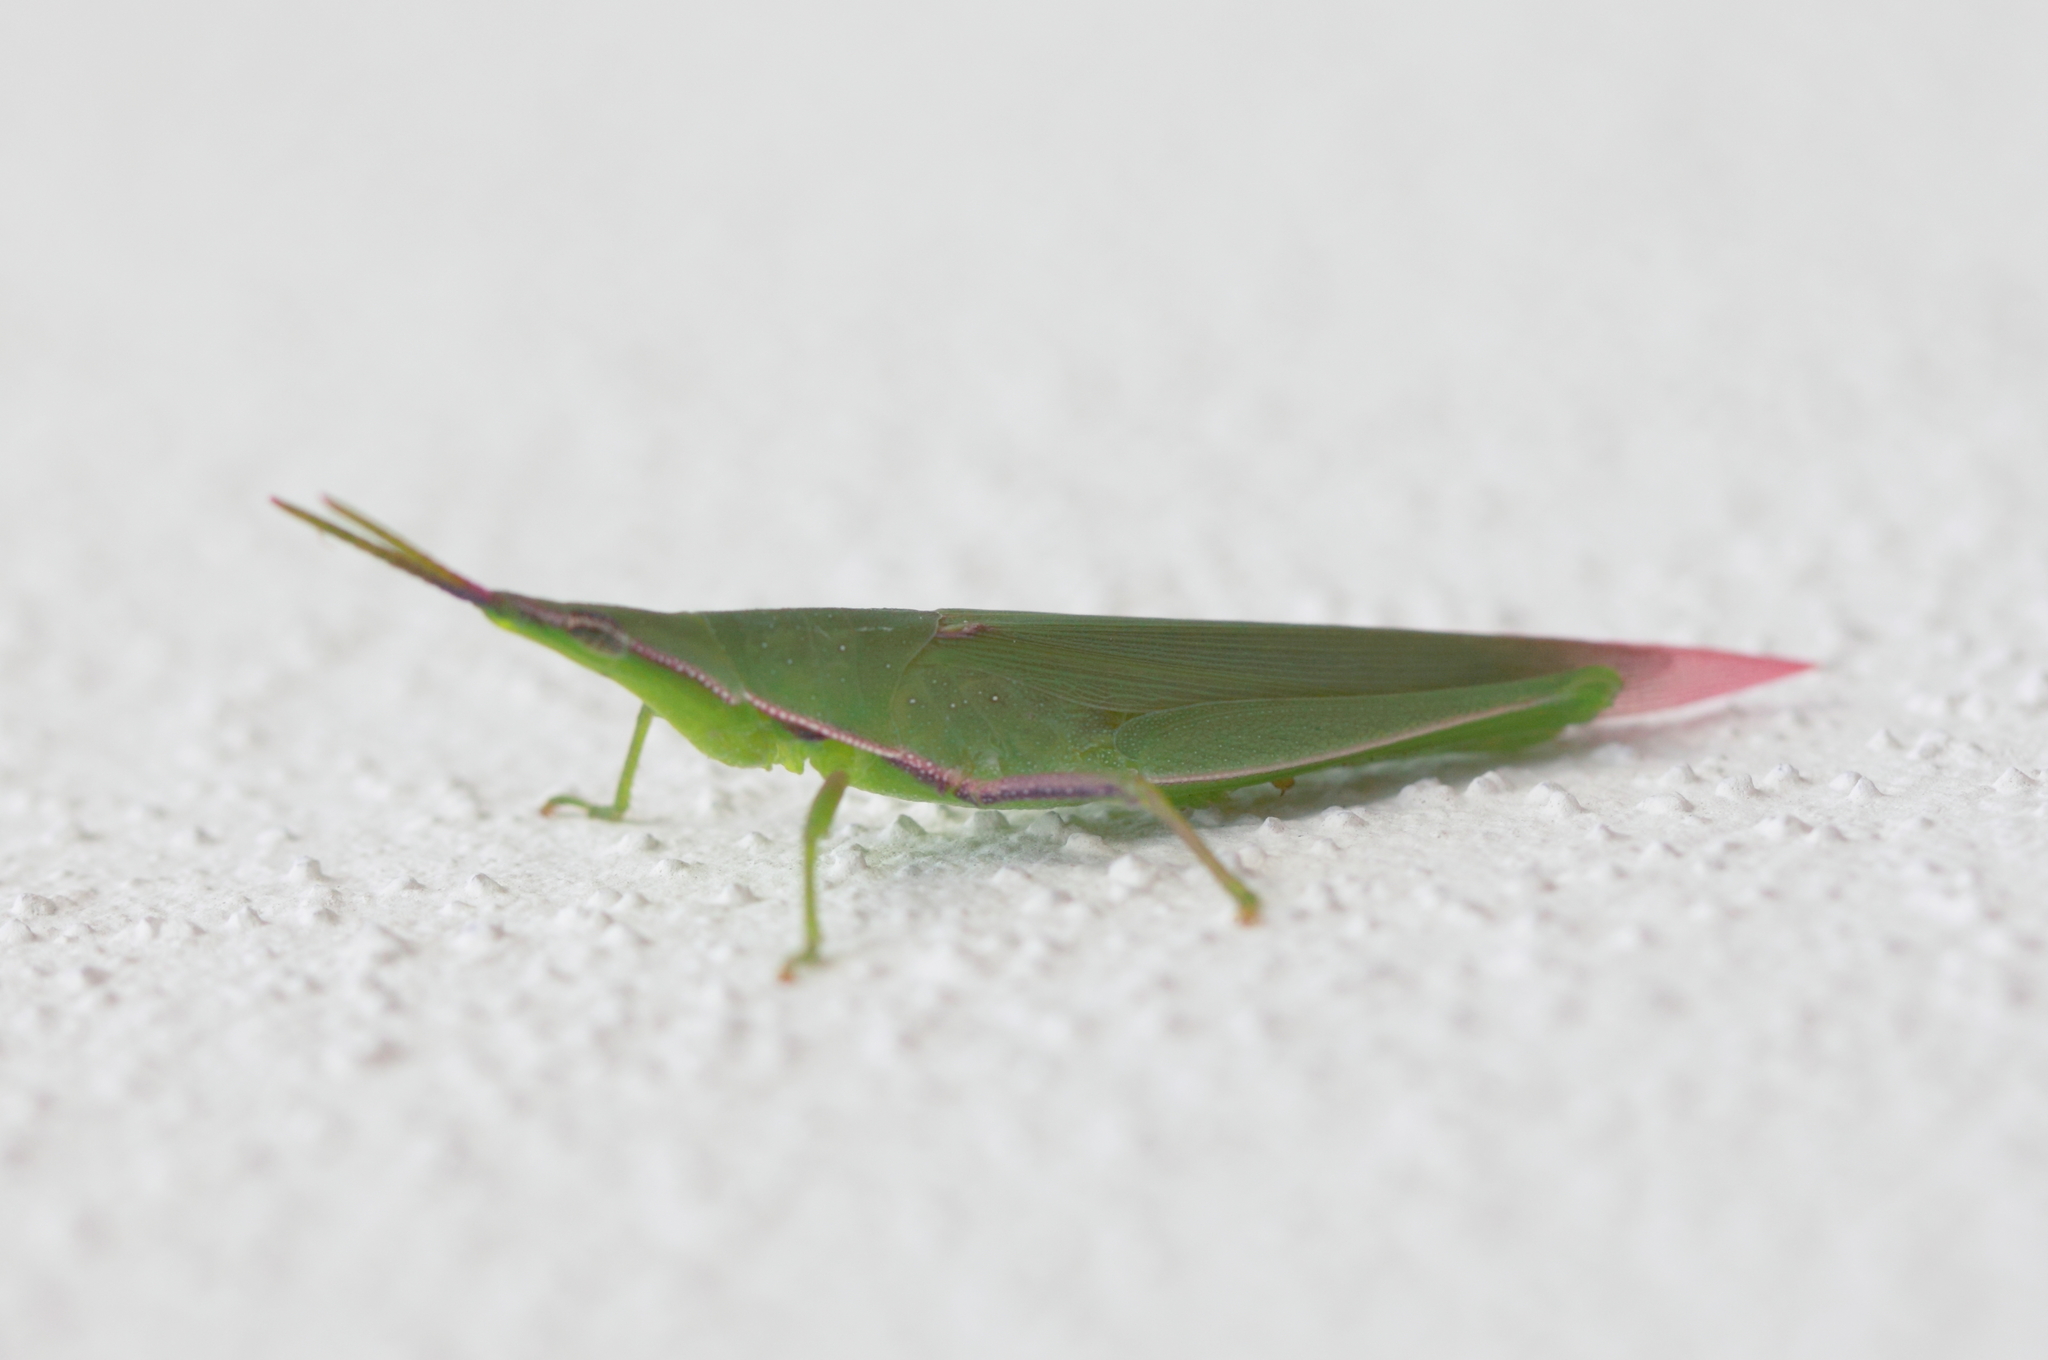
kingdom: Animalia
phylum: Arthropoda
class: Insecta
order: Orthoptera
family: Pyrgomorphidae
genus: Atractomorpha
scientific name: Atractomorpha australis
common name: Australian grass pyrgomorph
